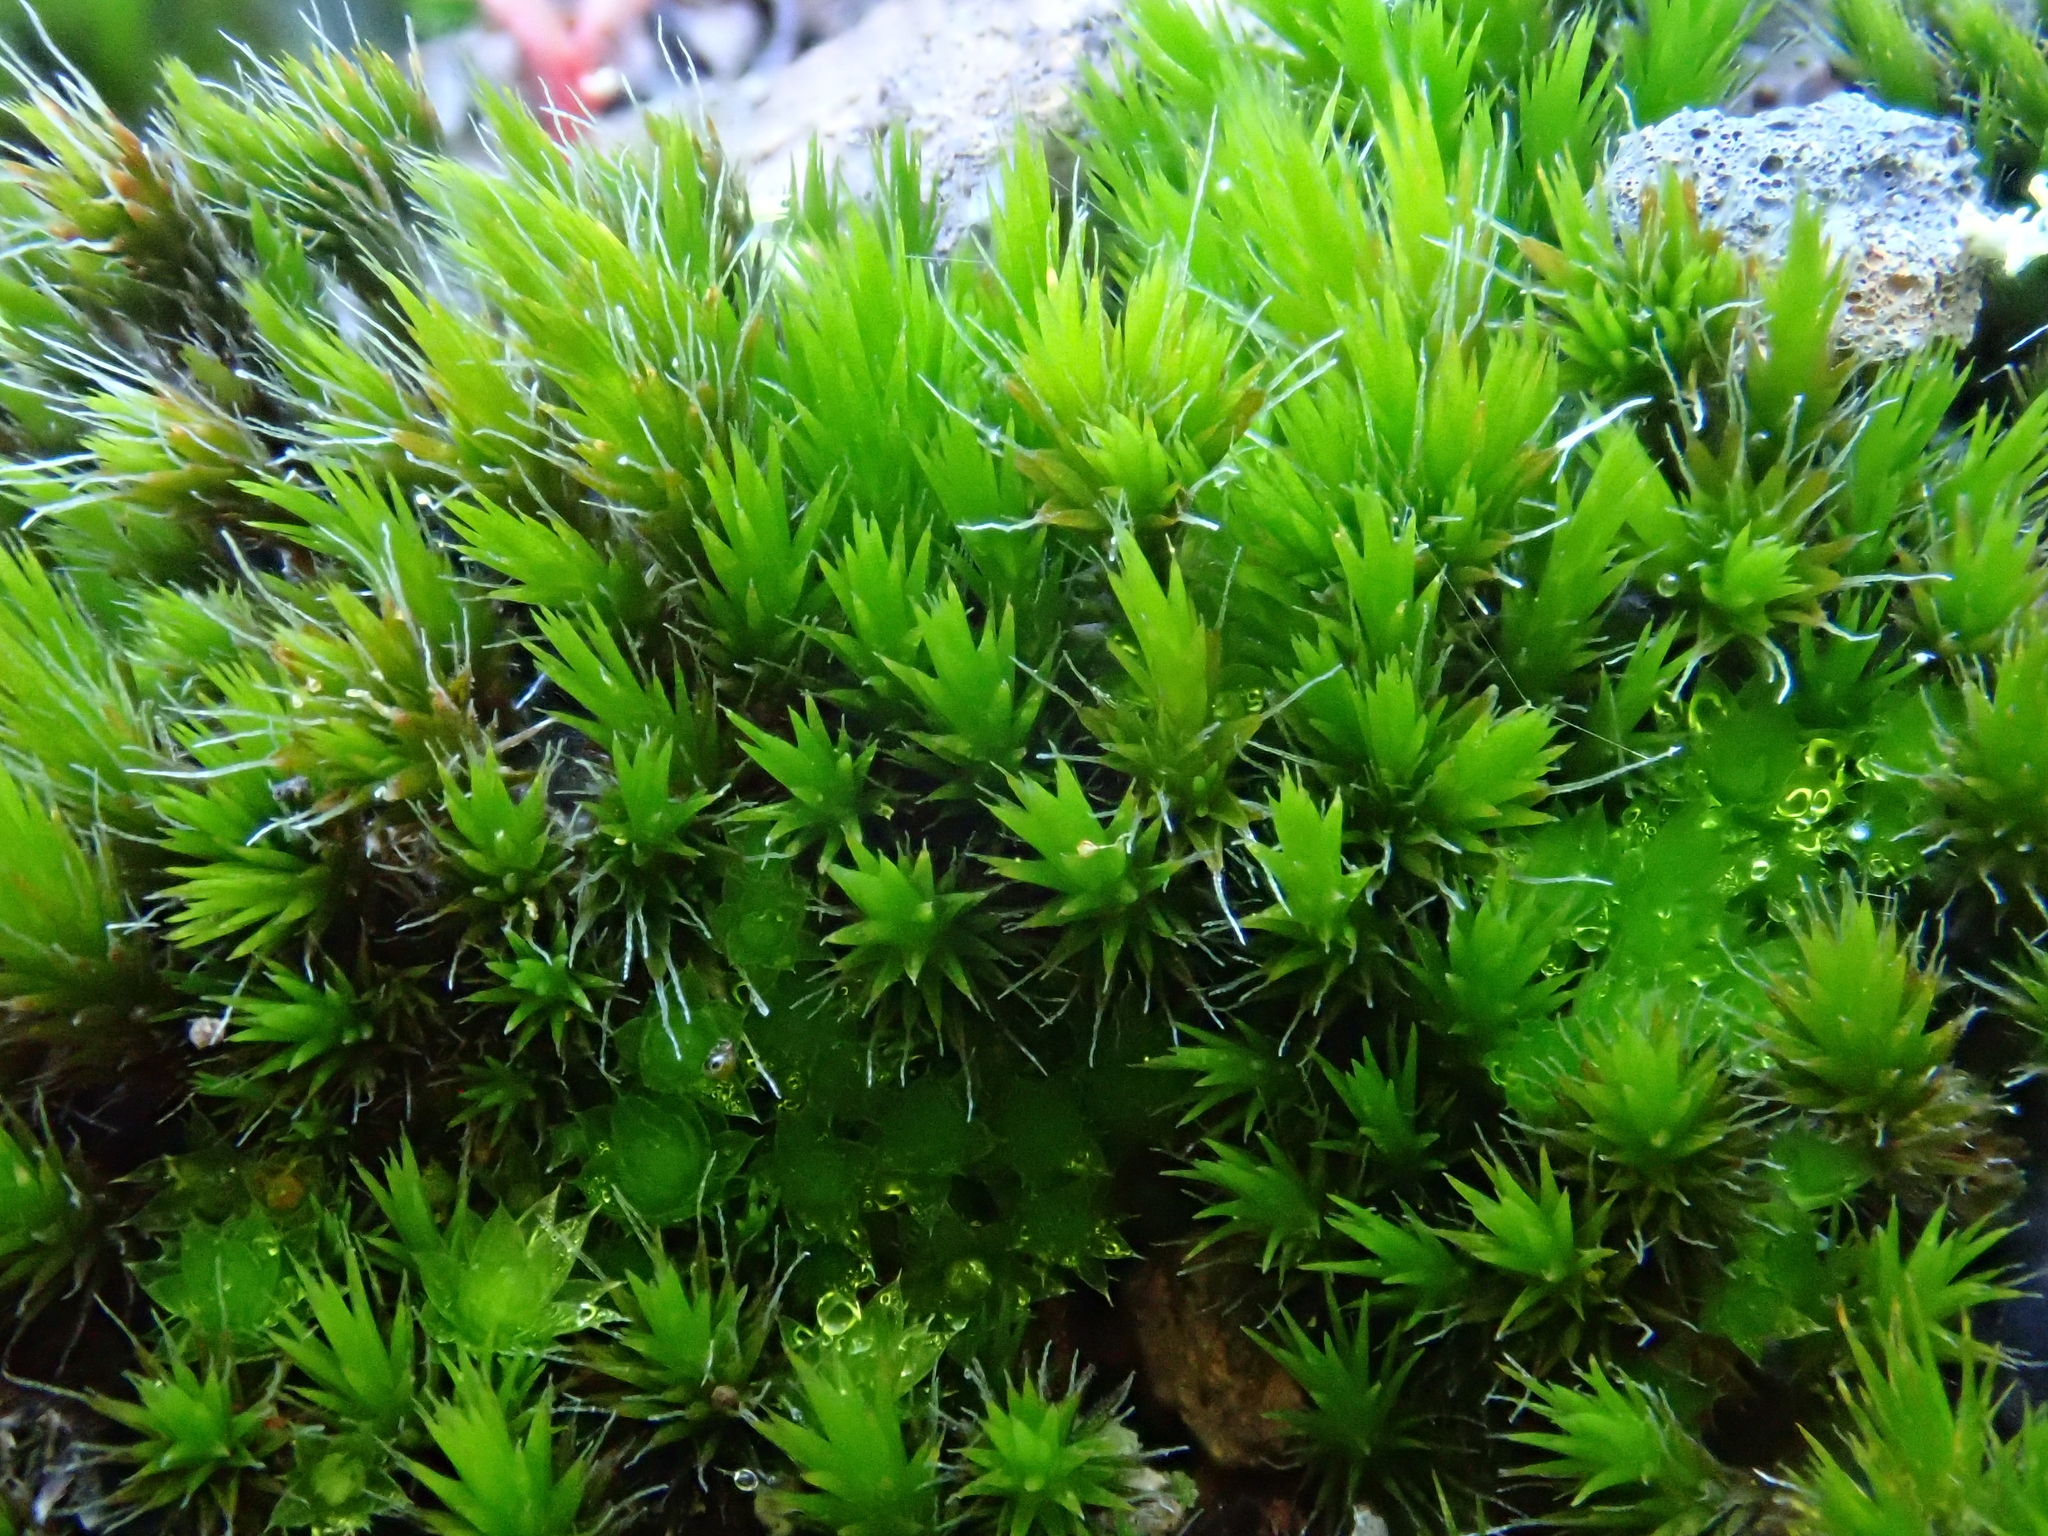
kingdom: Plantae
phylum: Bryophyta
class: Bryopsida
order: Dicranales
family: Leucobryaceae
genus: Campylopus
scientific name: Campylopus pilifer
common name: Campylopus moss
